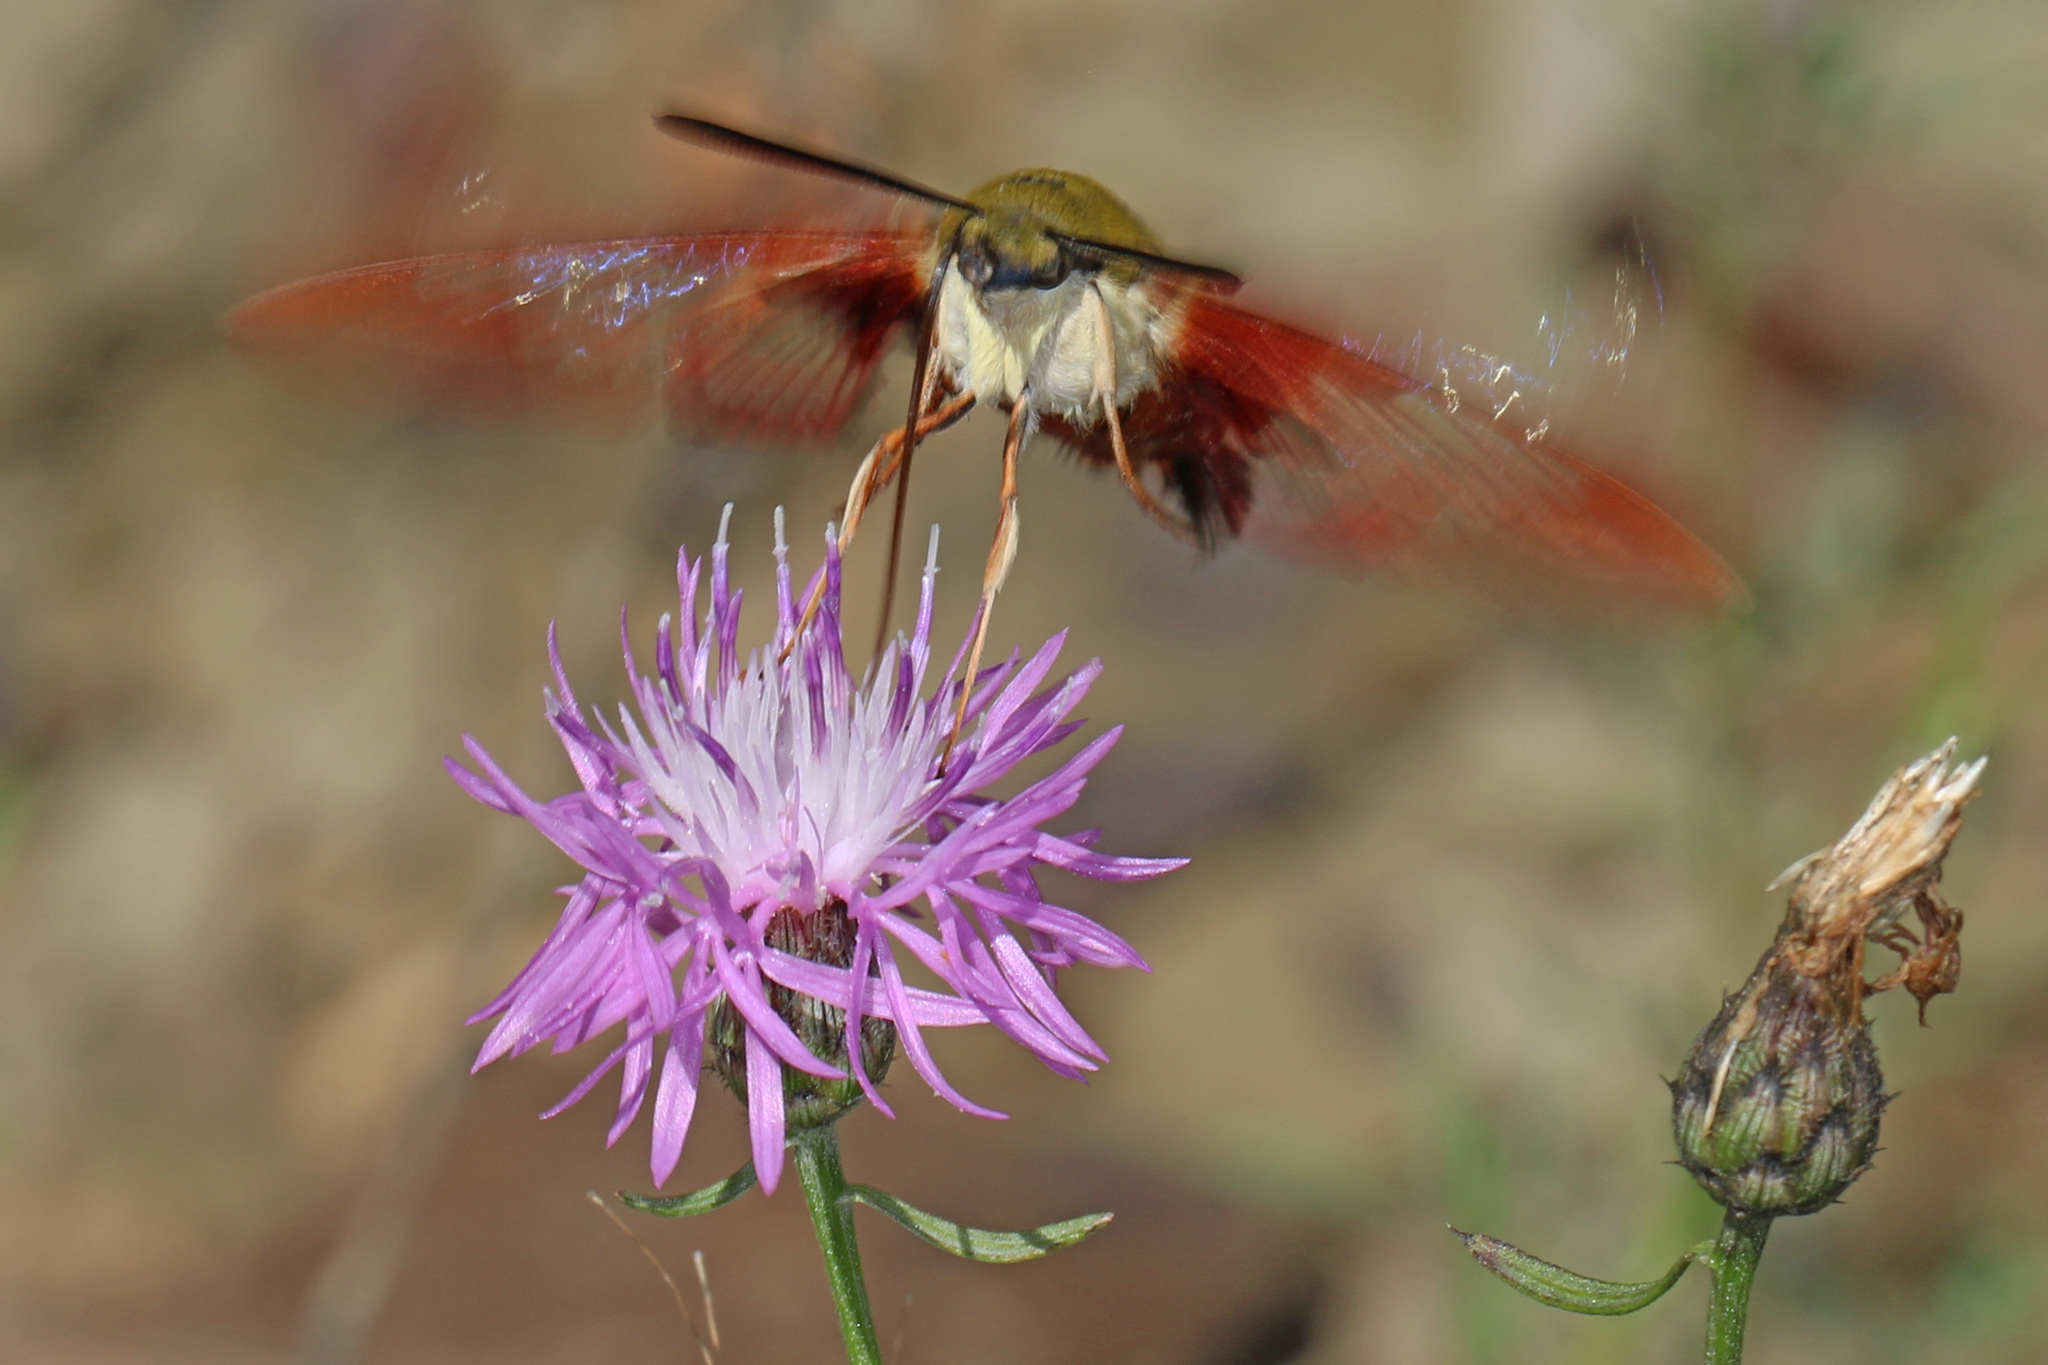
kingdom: Animalia
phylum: Arthropoda
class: Insecta
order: Lepidoptera
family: Sphingidae
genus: Hemaris
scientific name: Hemaris thysbe
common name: Common clear-wing
